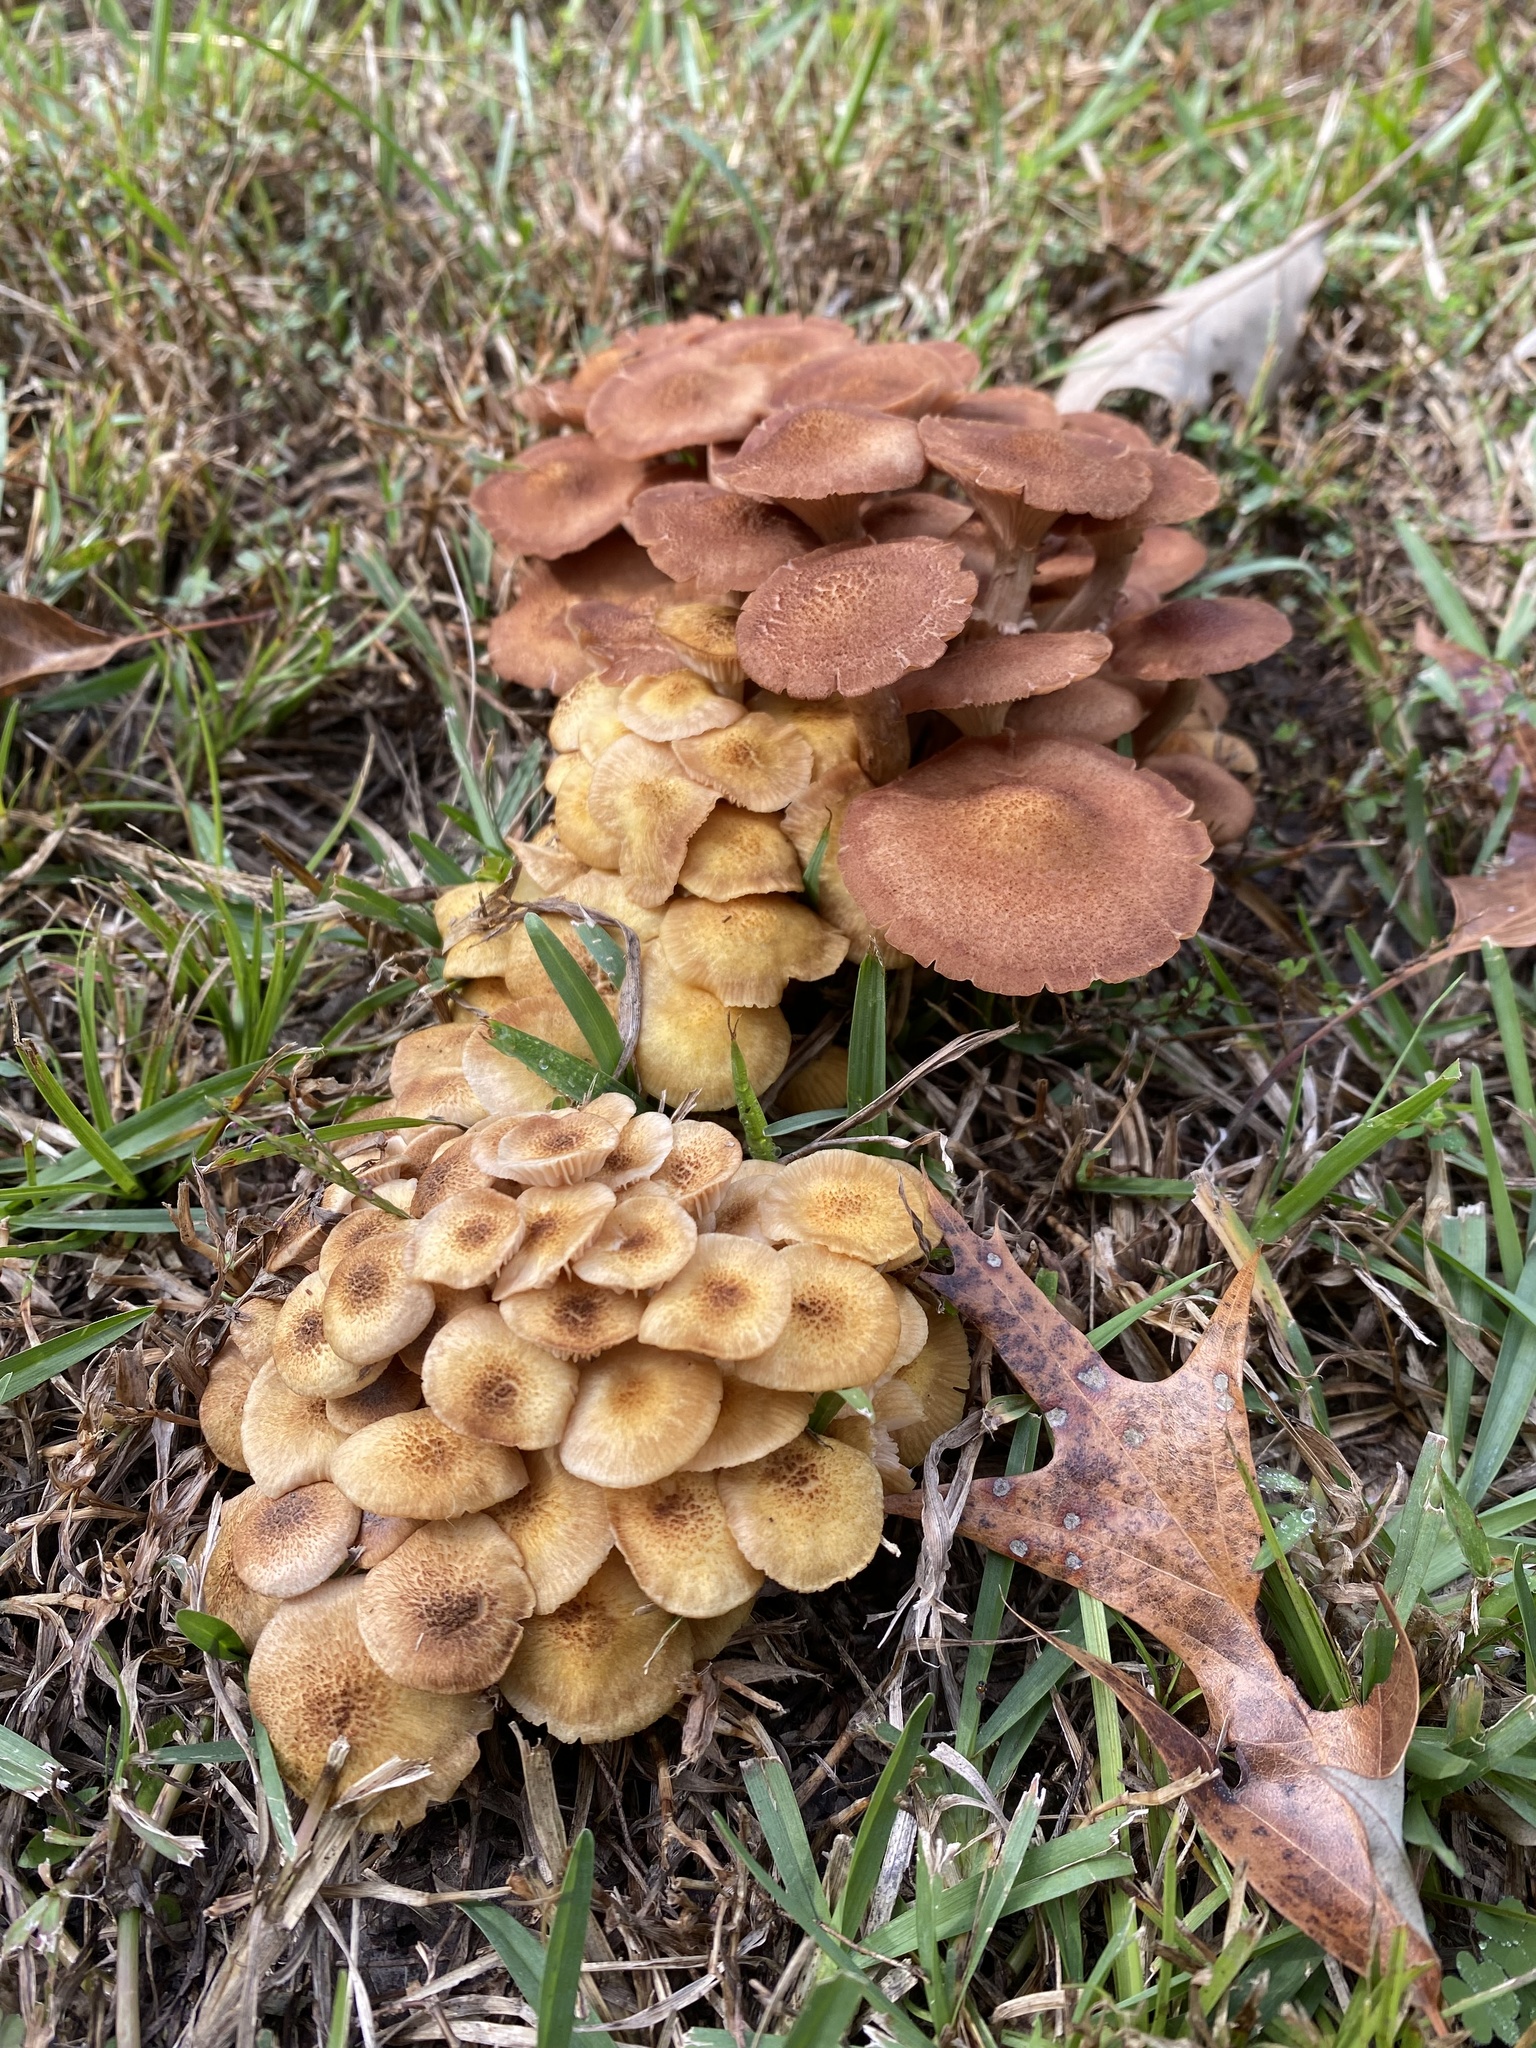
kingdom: Fungi
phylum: Basidiomycota
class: Agaricomycetes
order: Agaricales
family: Physalacriaceae
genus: Desarmillaria
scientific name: Desarmillaria caespitosa
